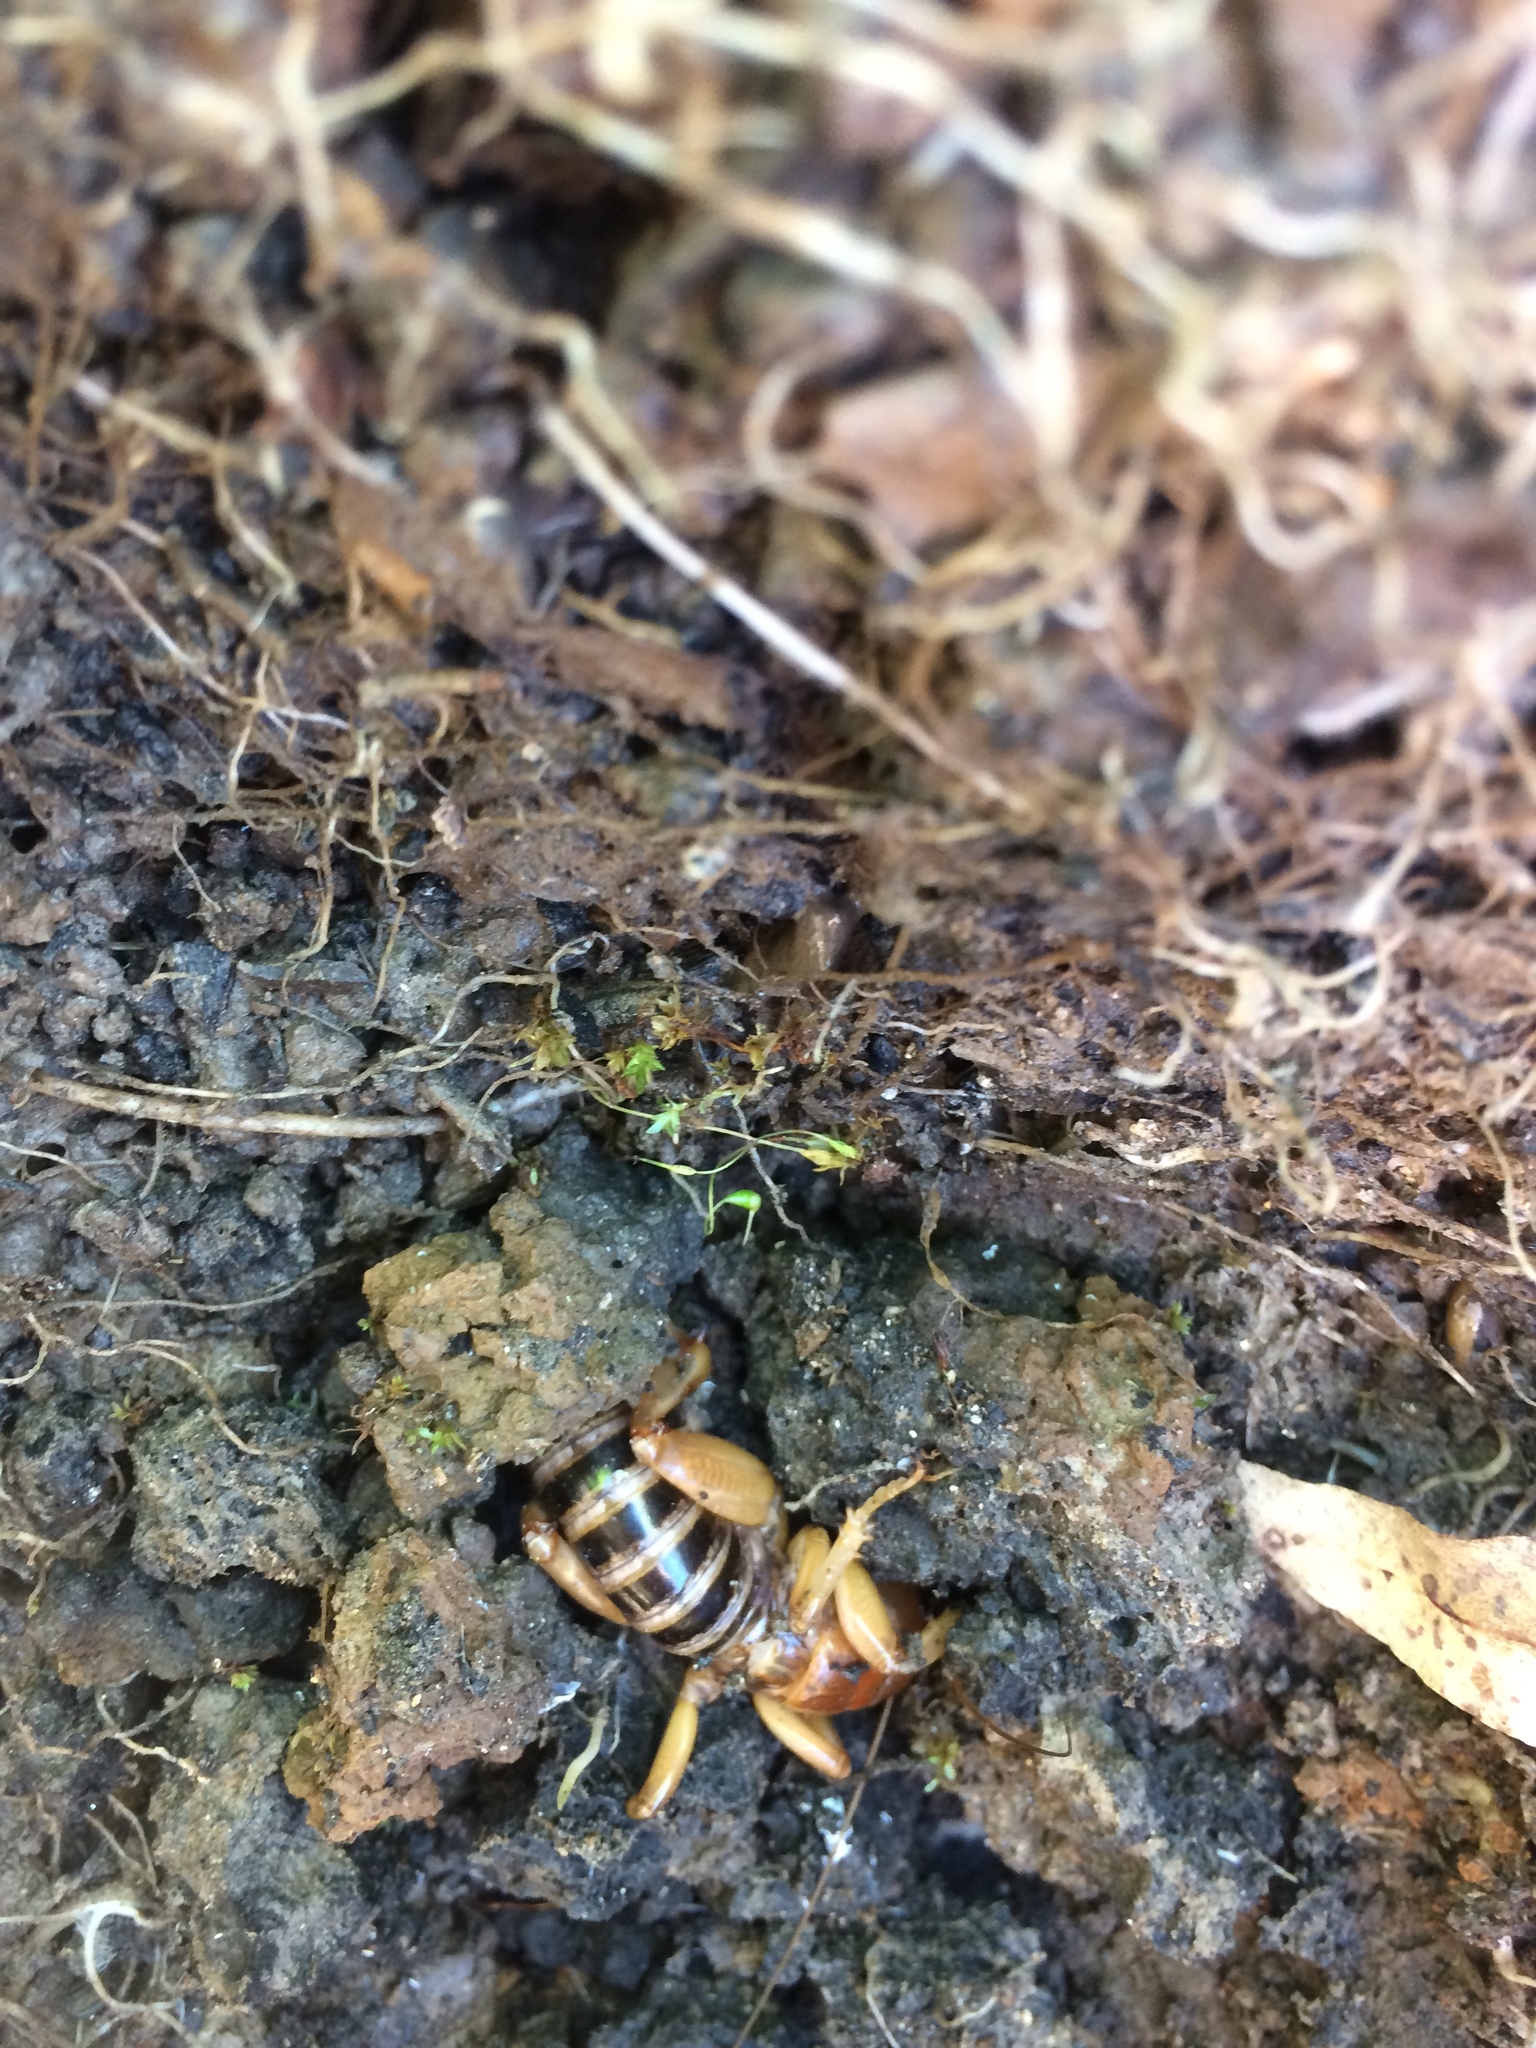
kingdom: Animalia
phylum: Arthropoda
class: Insecta
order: Orthoptera
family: Stenopelmatidae
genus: Ammopelmatus
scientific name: Ammopelmatus
